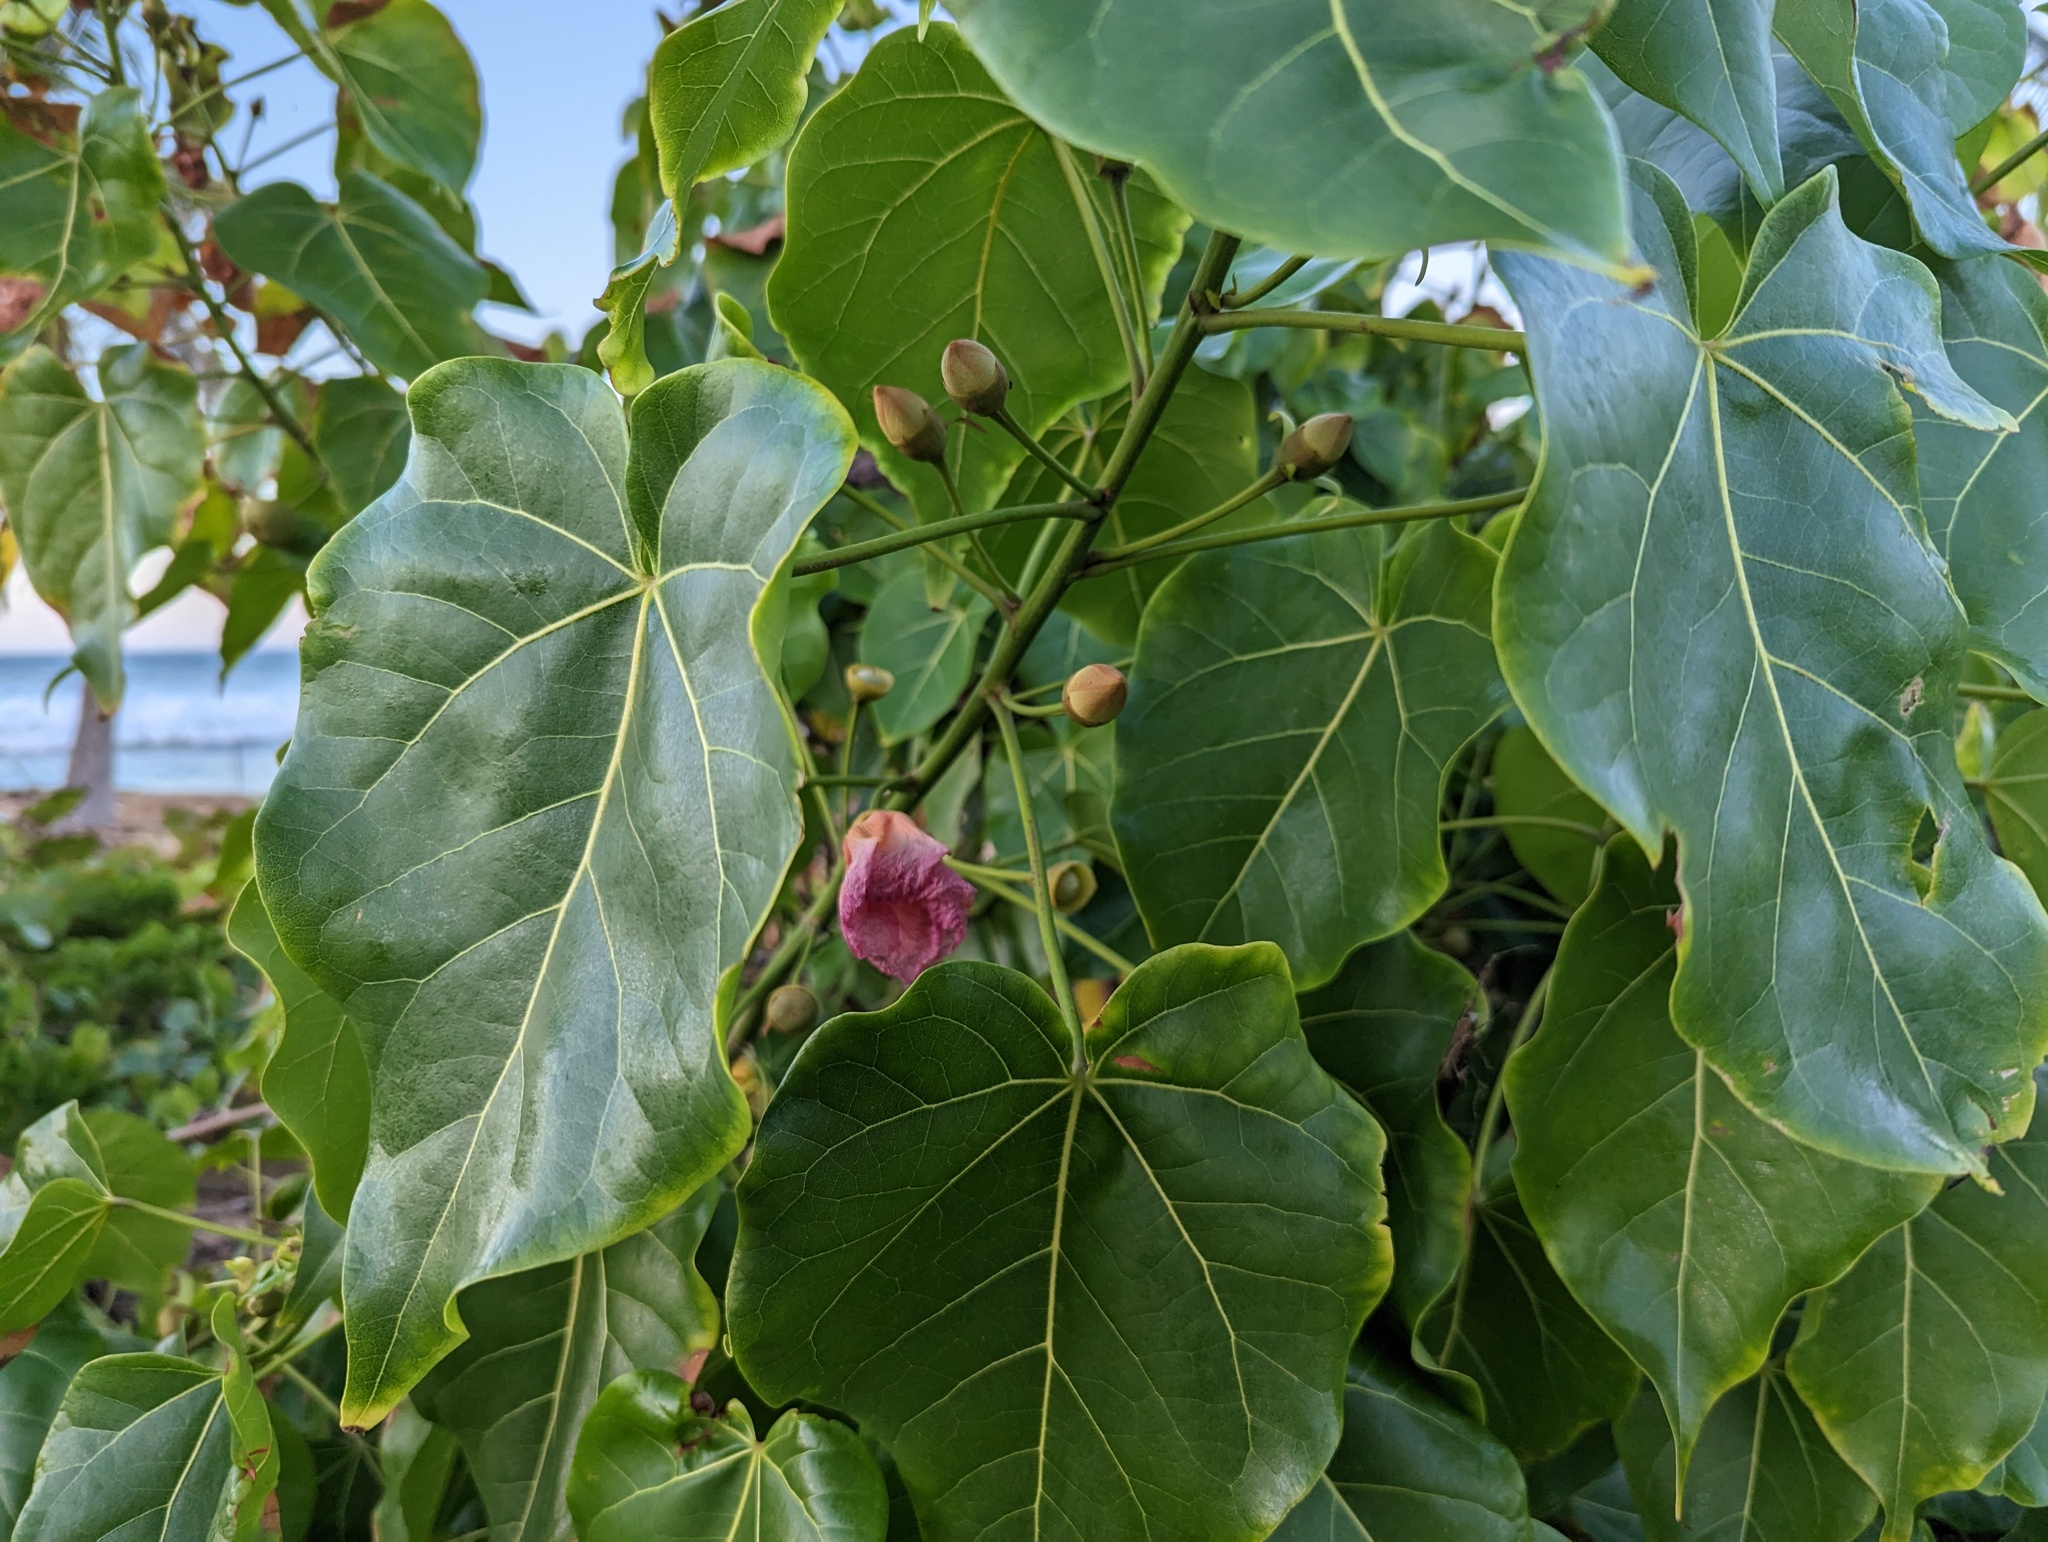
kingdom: Plantae
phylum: Tracheophyta
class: Magnoliopsida
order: Malvales
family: Malvaceae
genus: Thespesia
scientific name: Thespesia populnea
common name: Seaside mahoe
